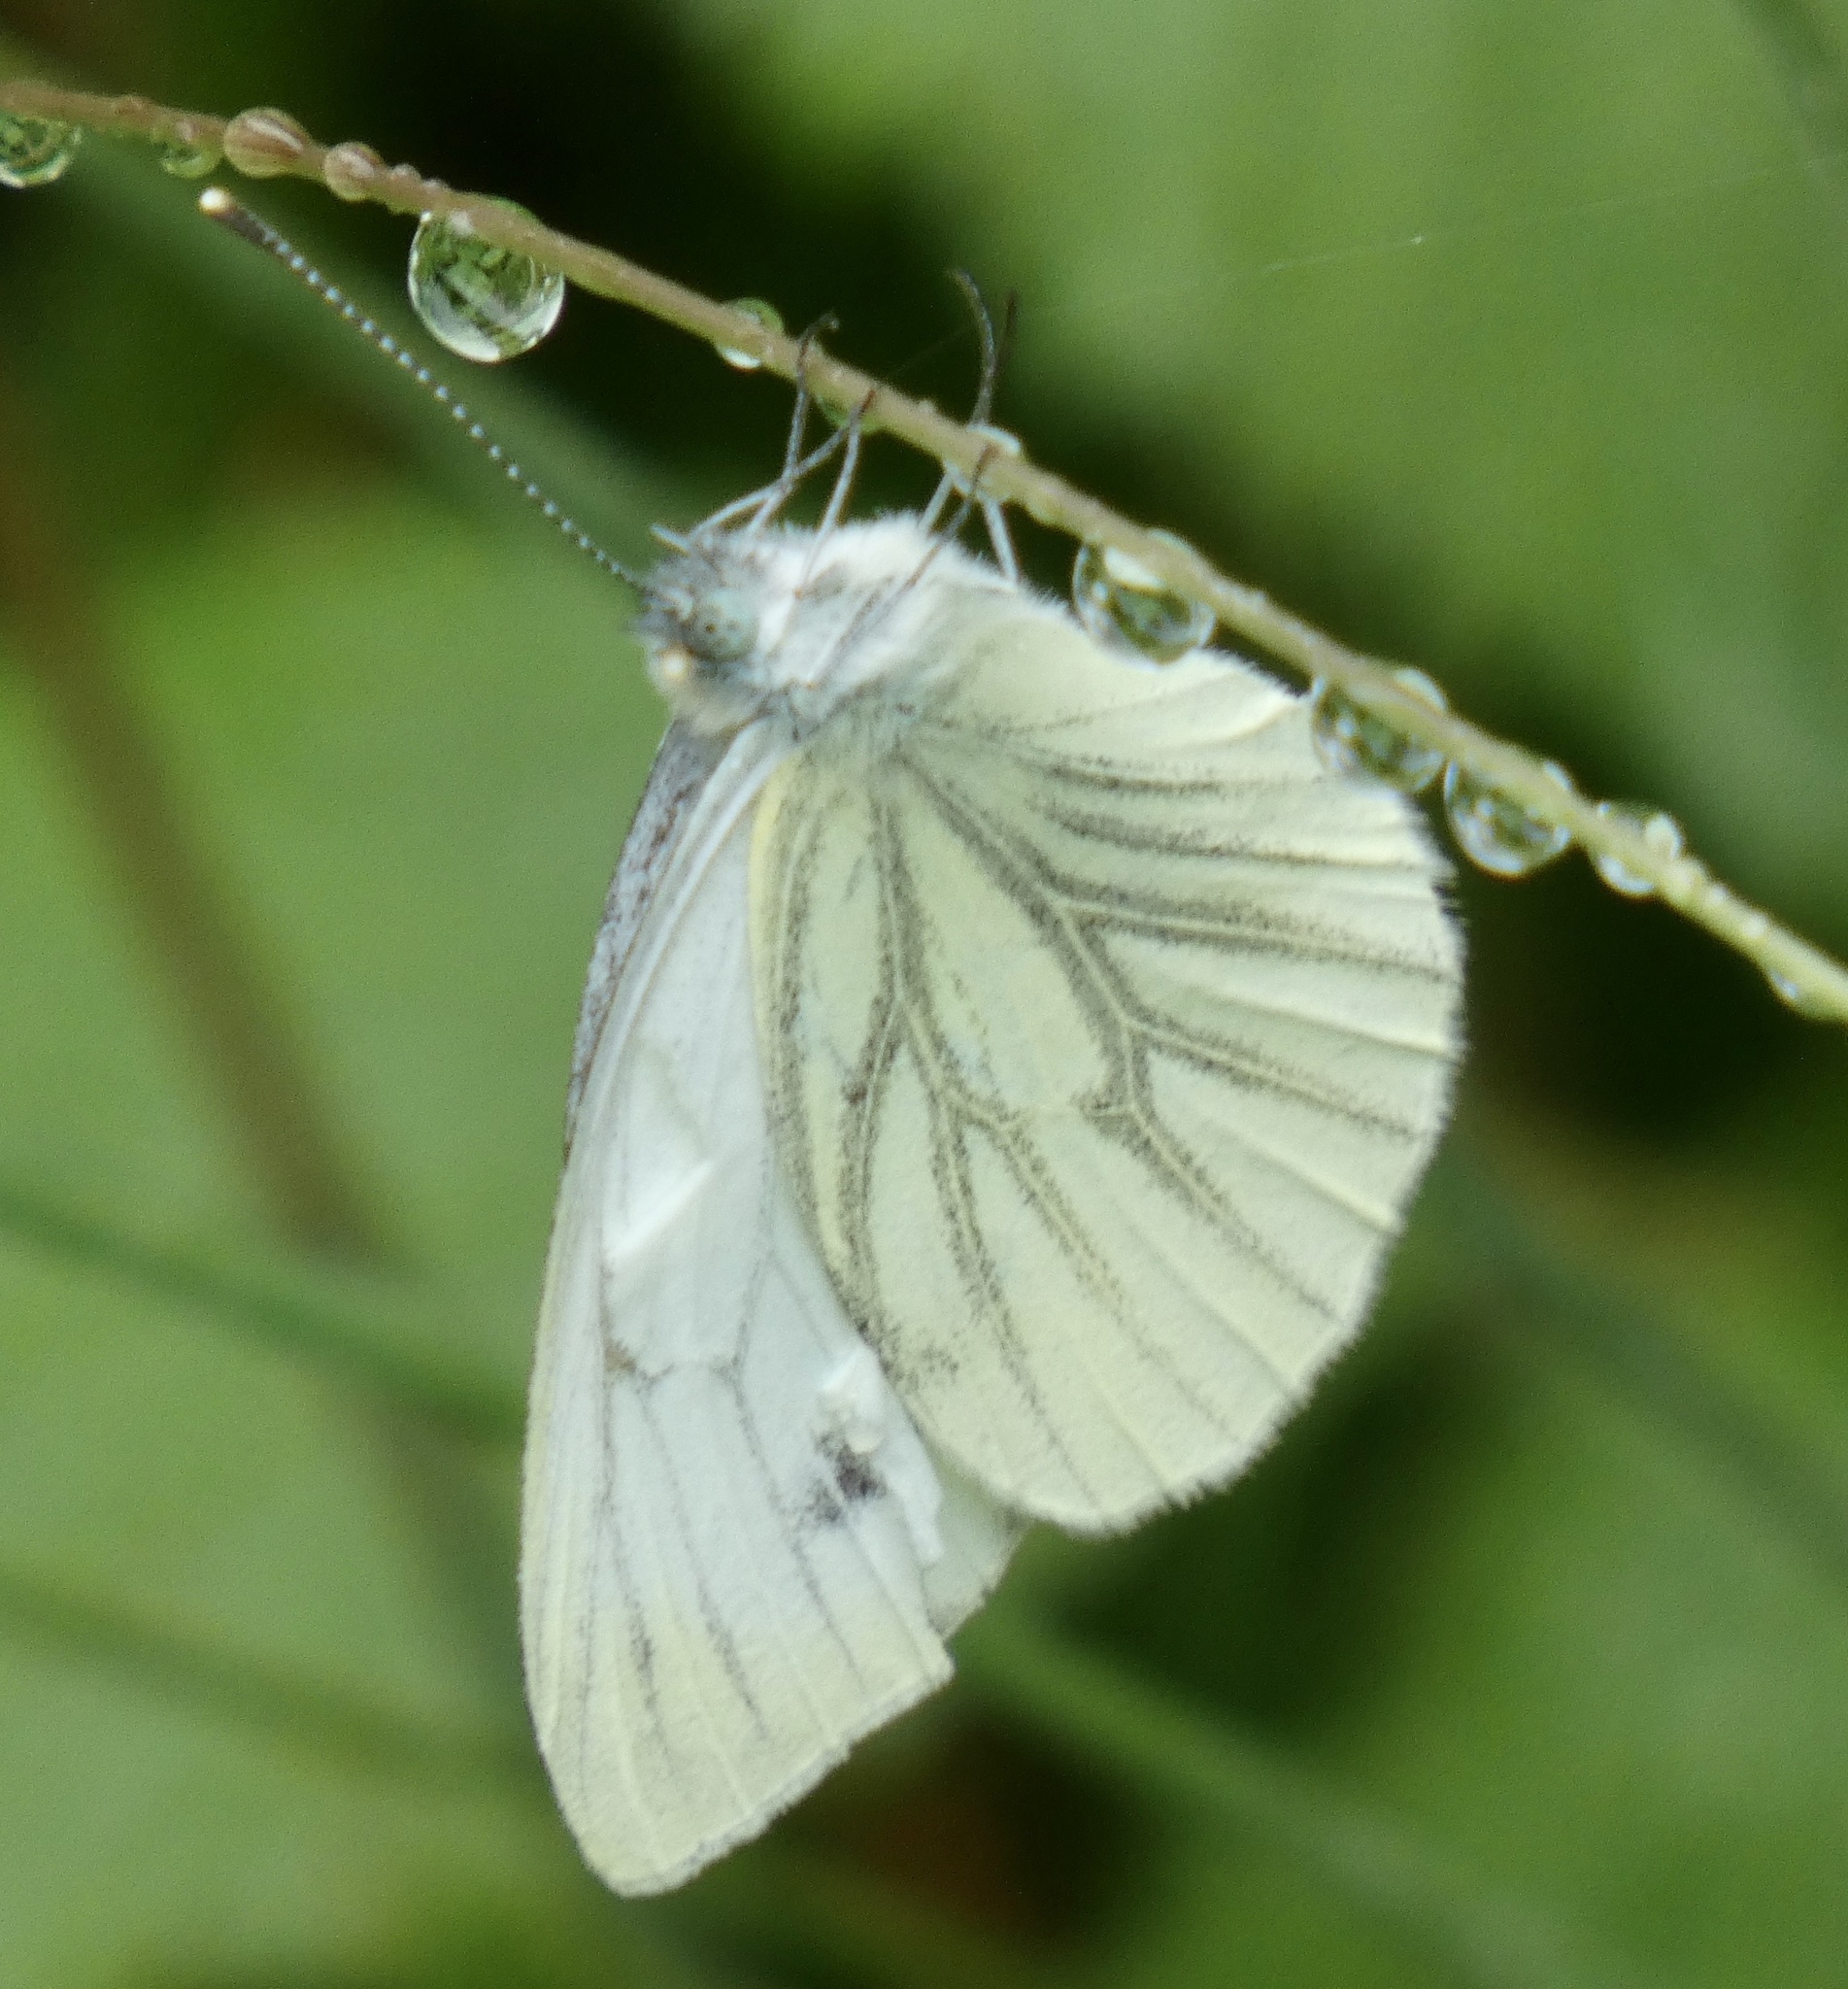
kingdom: Animalia
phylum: Arthropoda
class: Insecta
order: Lepidoptera
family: Pieridae
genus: Pieris
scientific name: Pieris napi
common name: Green-veined white
